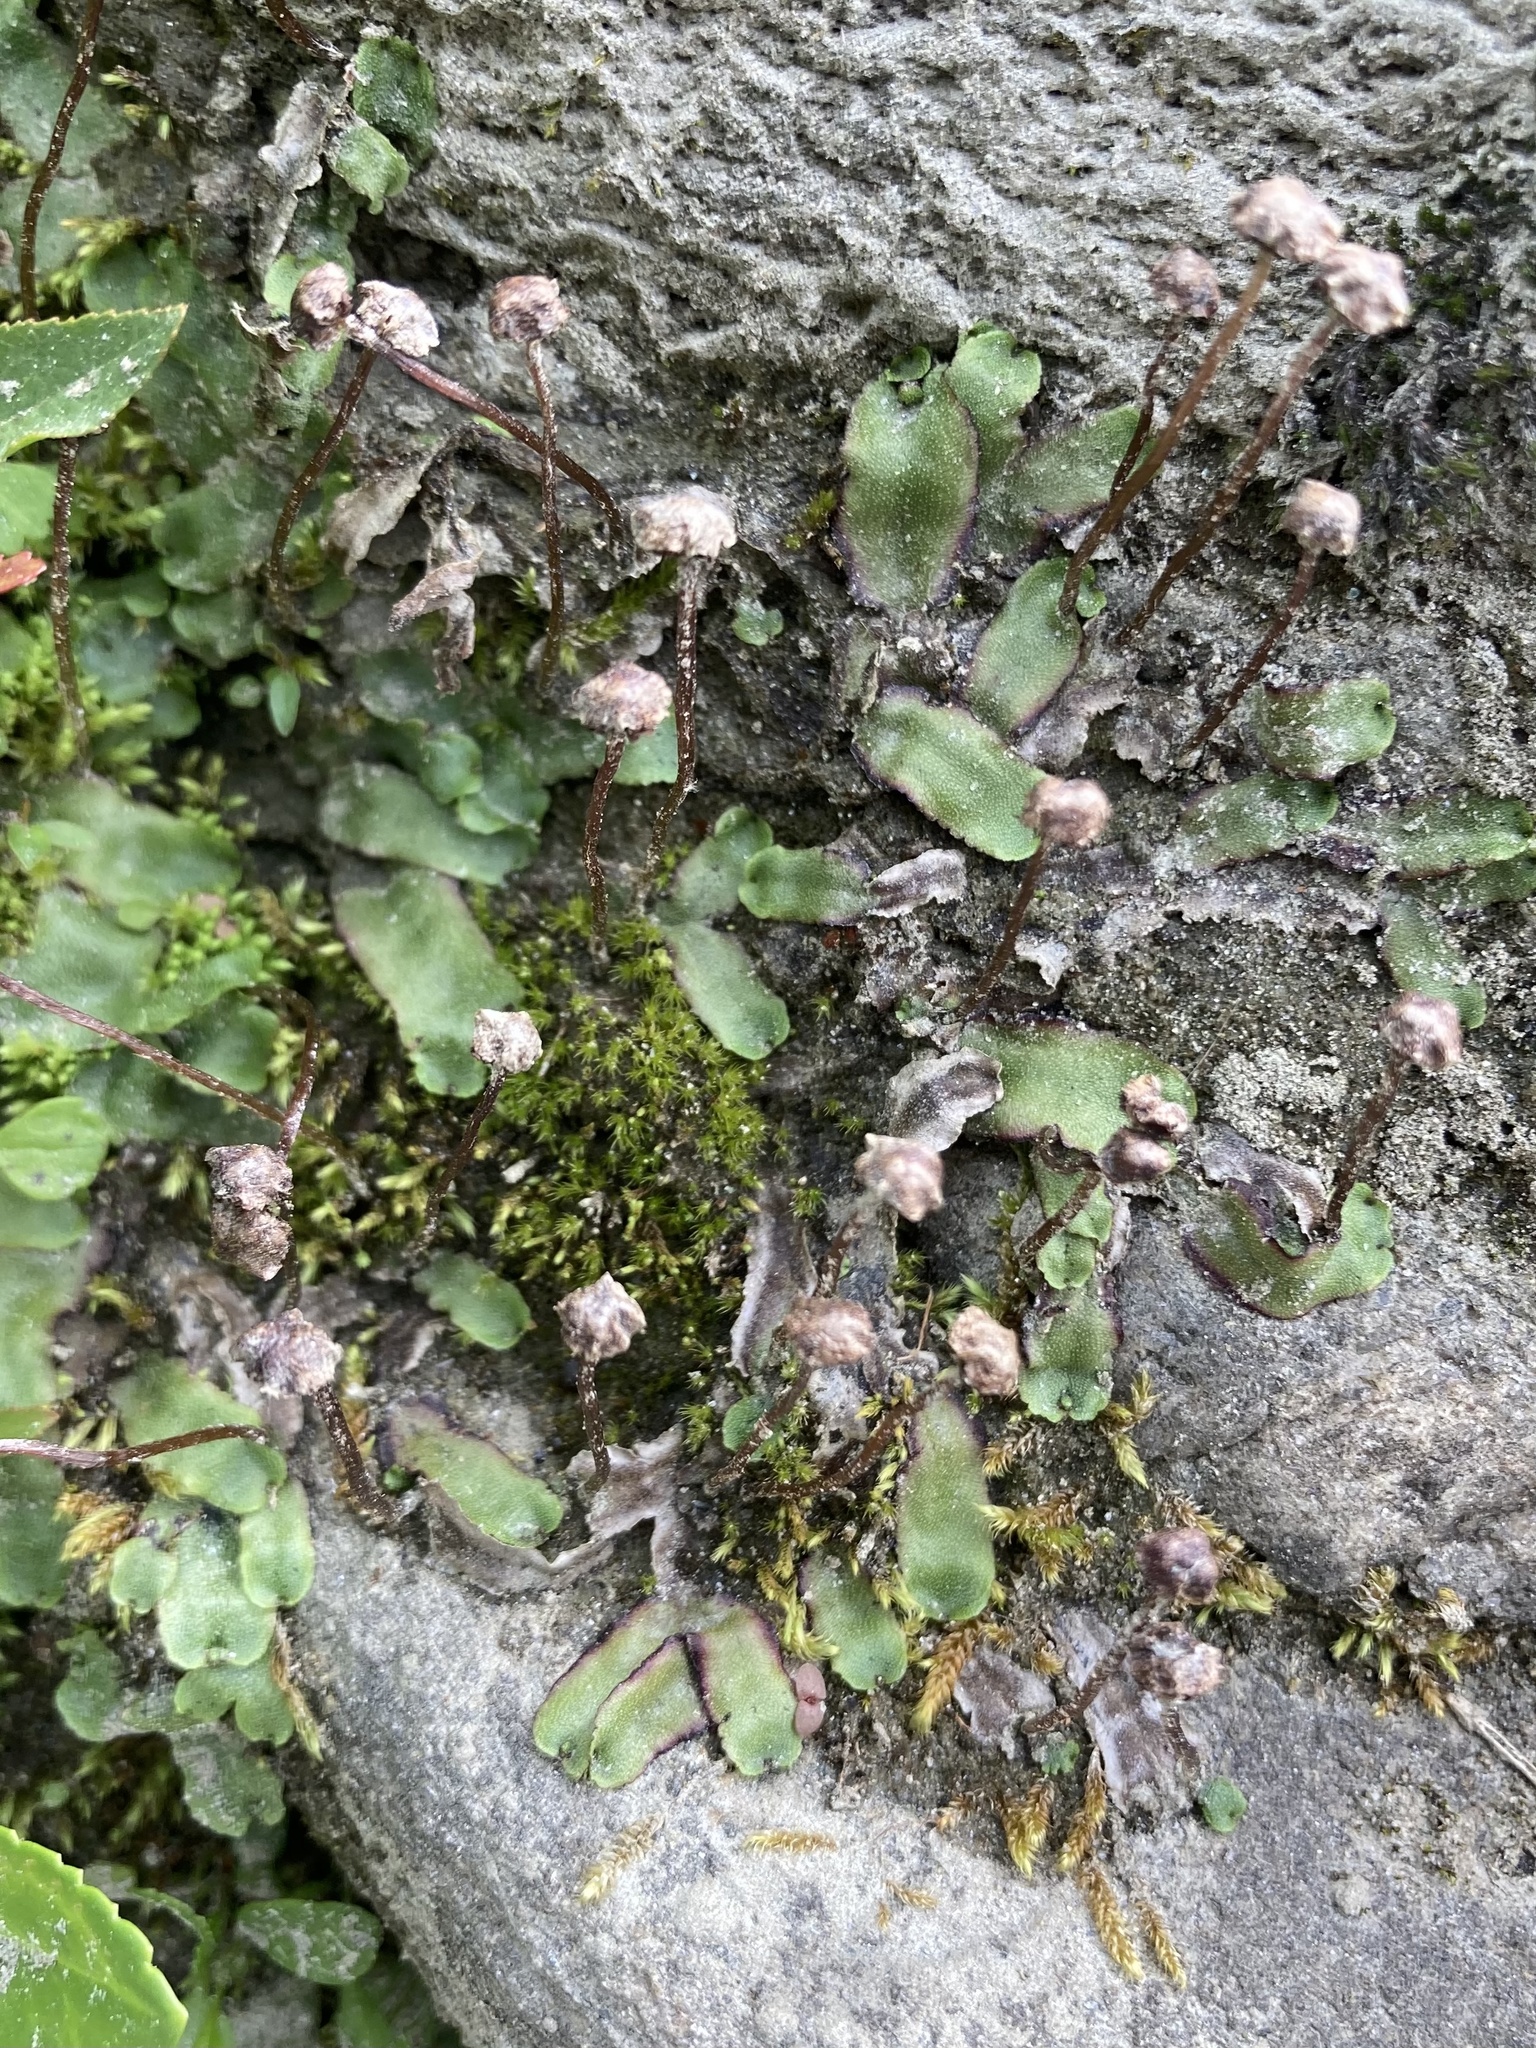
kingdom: Plantae
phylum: Marchantiophyta
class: Marchantiopsida
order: Marchantiales
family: Marchantiaceae
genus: Marchantia
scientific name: Marchantia quadrata
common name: Narrow mushroom-headed liverwort
